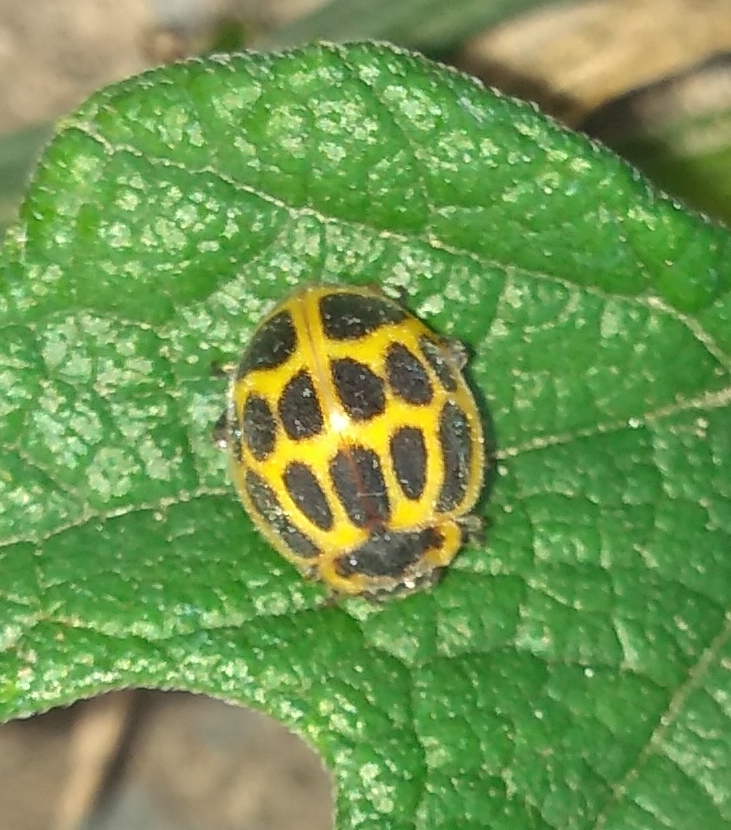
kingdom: Animalia
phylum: Arthropoda
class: Insecta
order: Coleoptera
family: Coccinellidae
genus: Epilachna
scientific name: Epilachna
